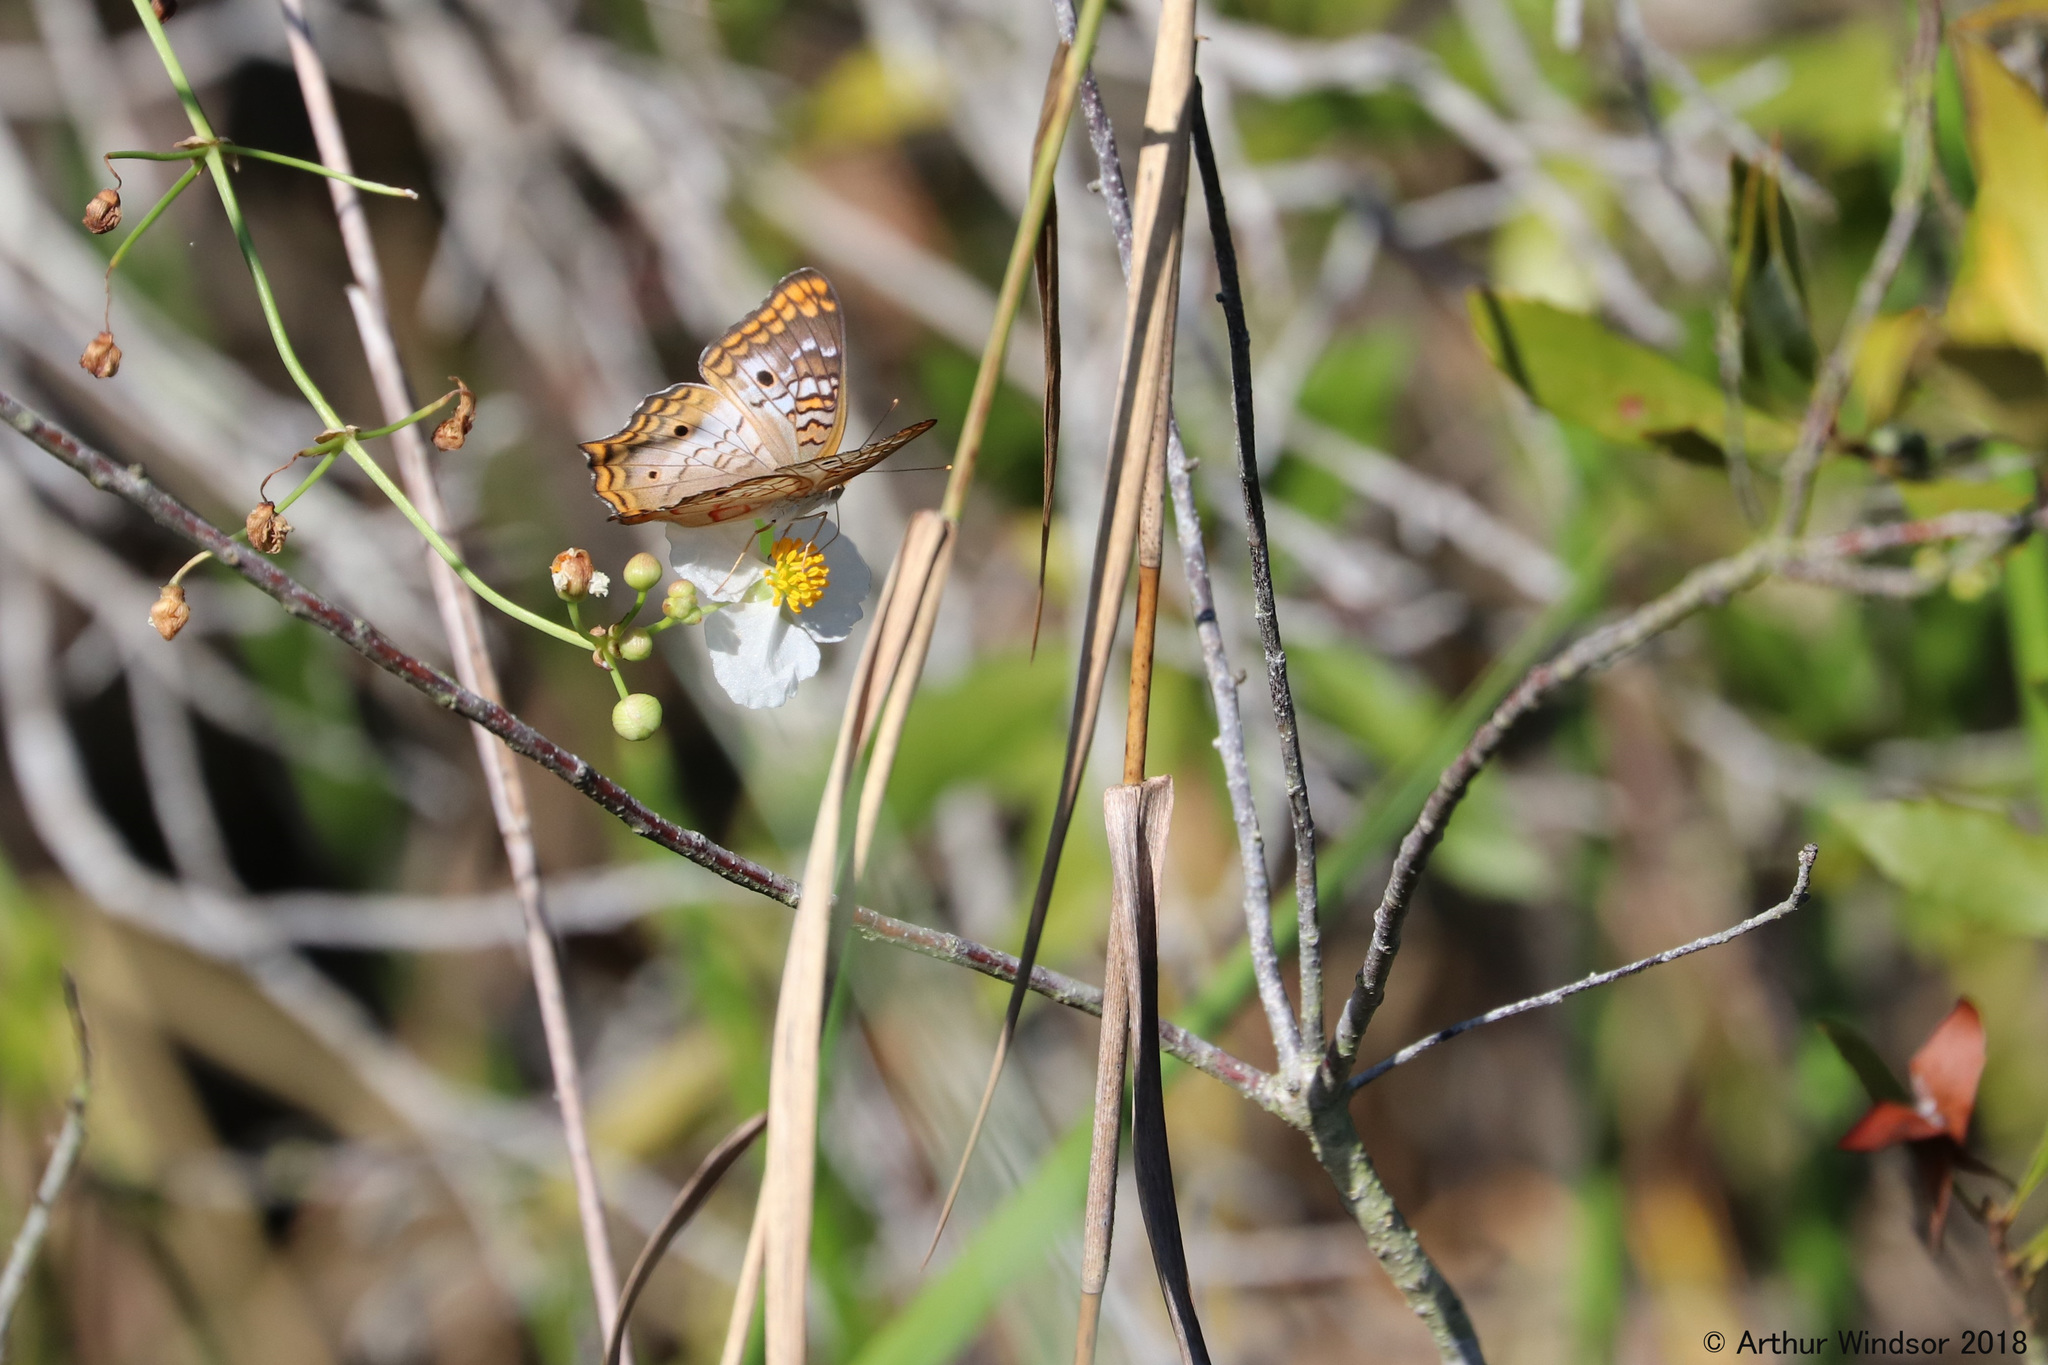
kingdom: Animalia
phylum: Arthropoda
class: Insecta
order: Lepidoptera
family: Nymphalidae
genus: Anartia
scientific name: Anartia jatrophae
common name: White peacock
